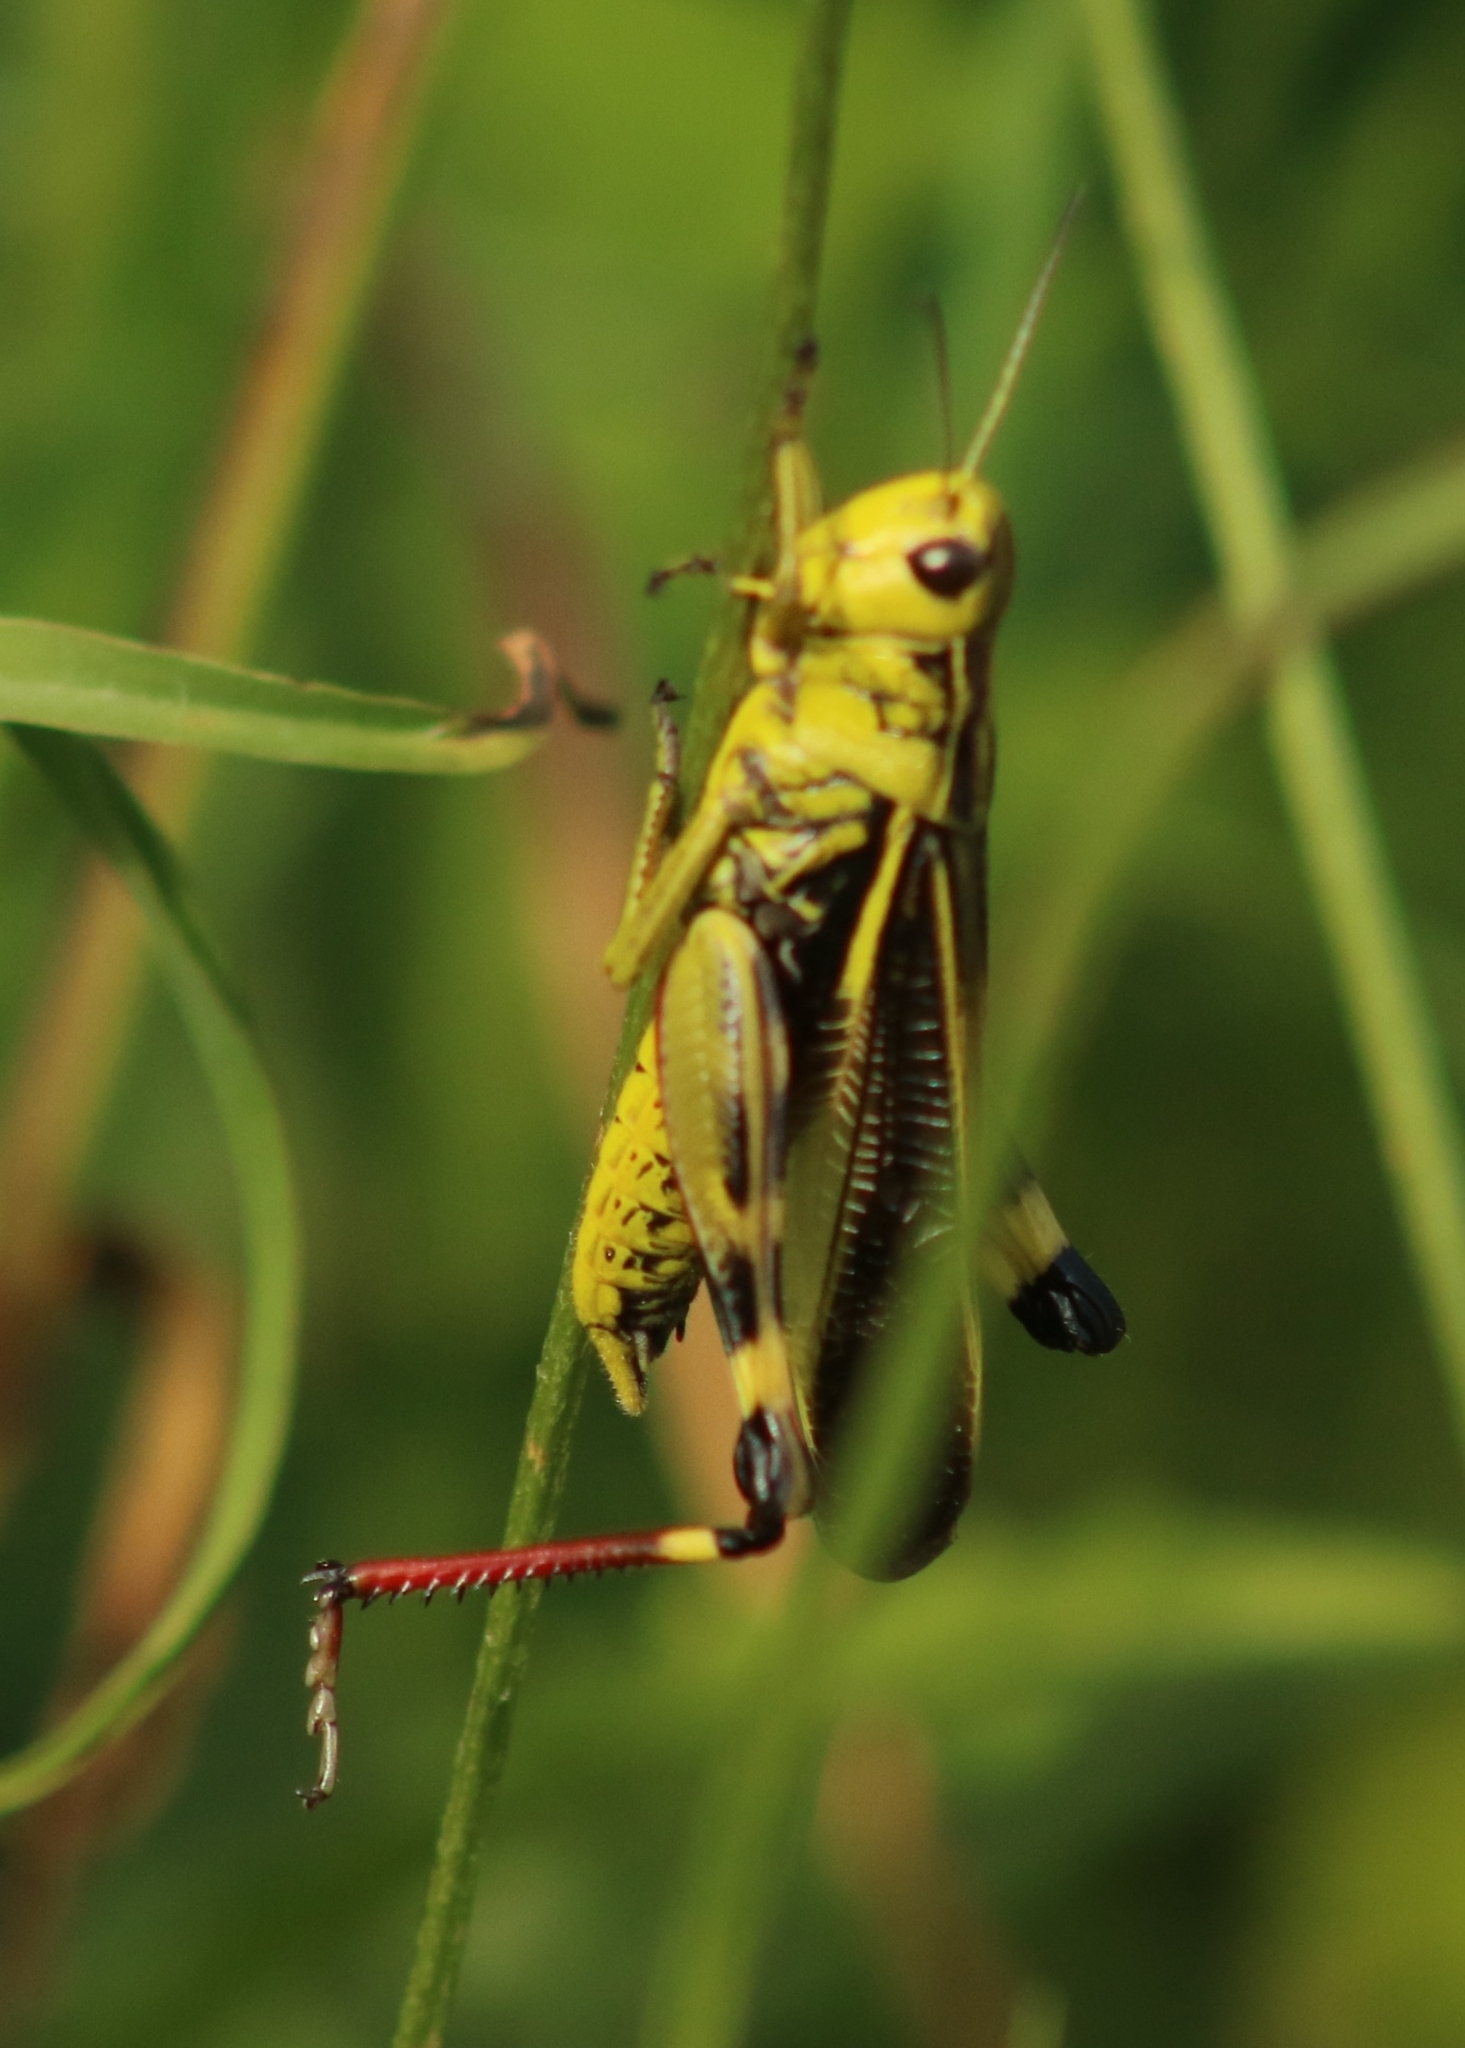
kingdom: Animalia
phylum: Arthropoda
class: Insecta
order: Orthoptera
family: Acrididae
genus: Arcyptera
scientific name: Arcyptera fusca
